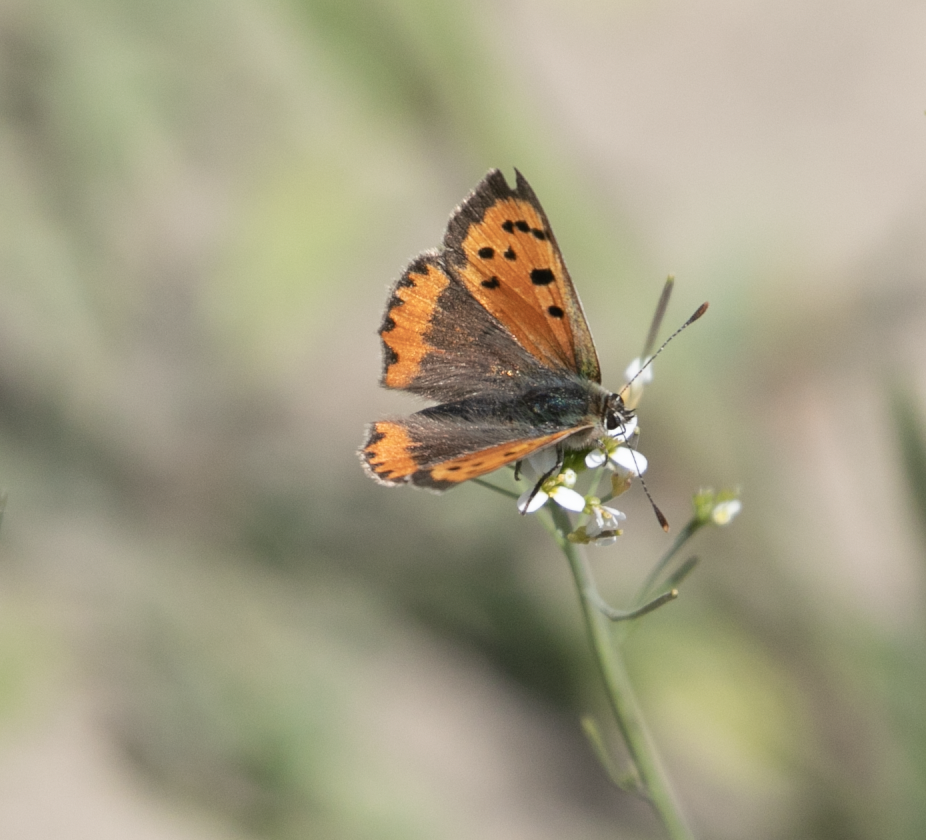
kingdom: Animalia
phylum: Arthropoda
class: Insecta
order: Lepidoptera
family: Lycaenidae
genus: Lycaena
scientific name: Lycaena phlaeas
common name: Small copper
